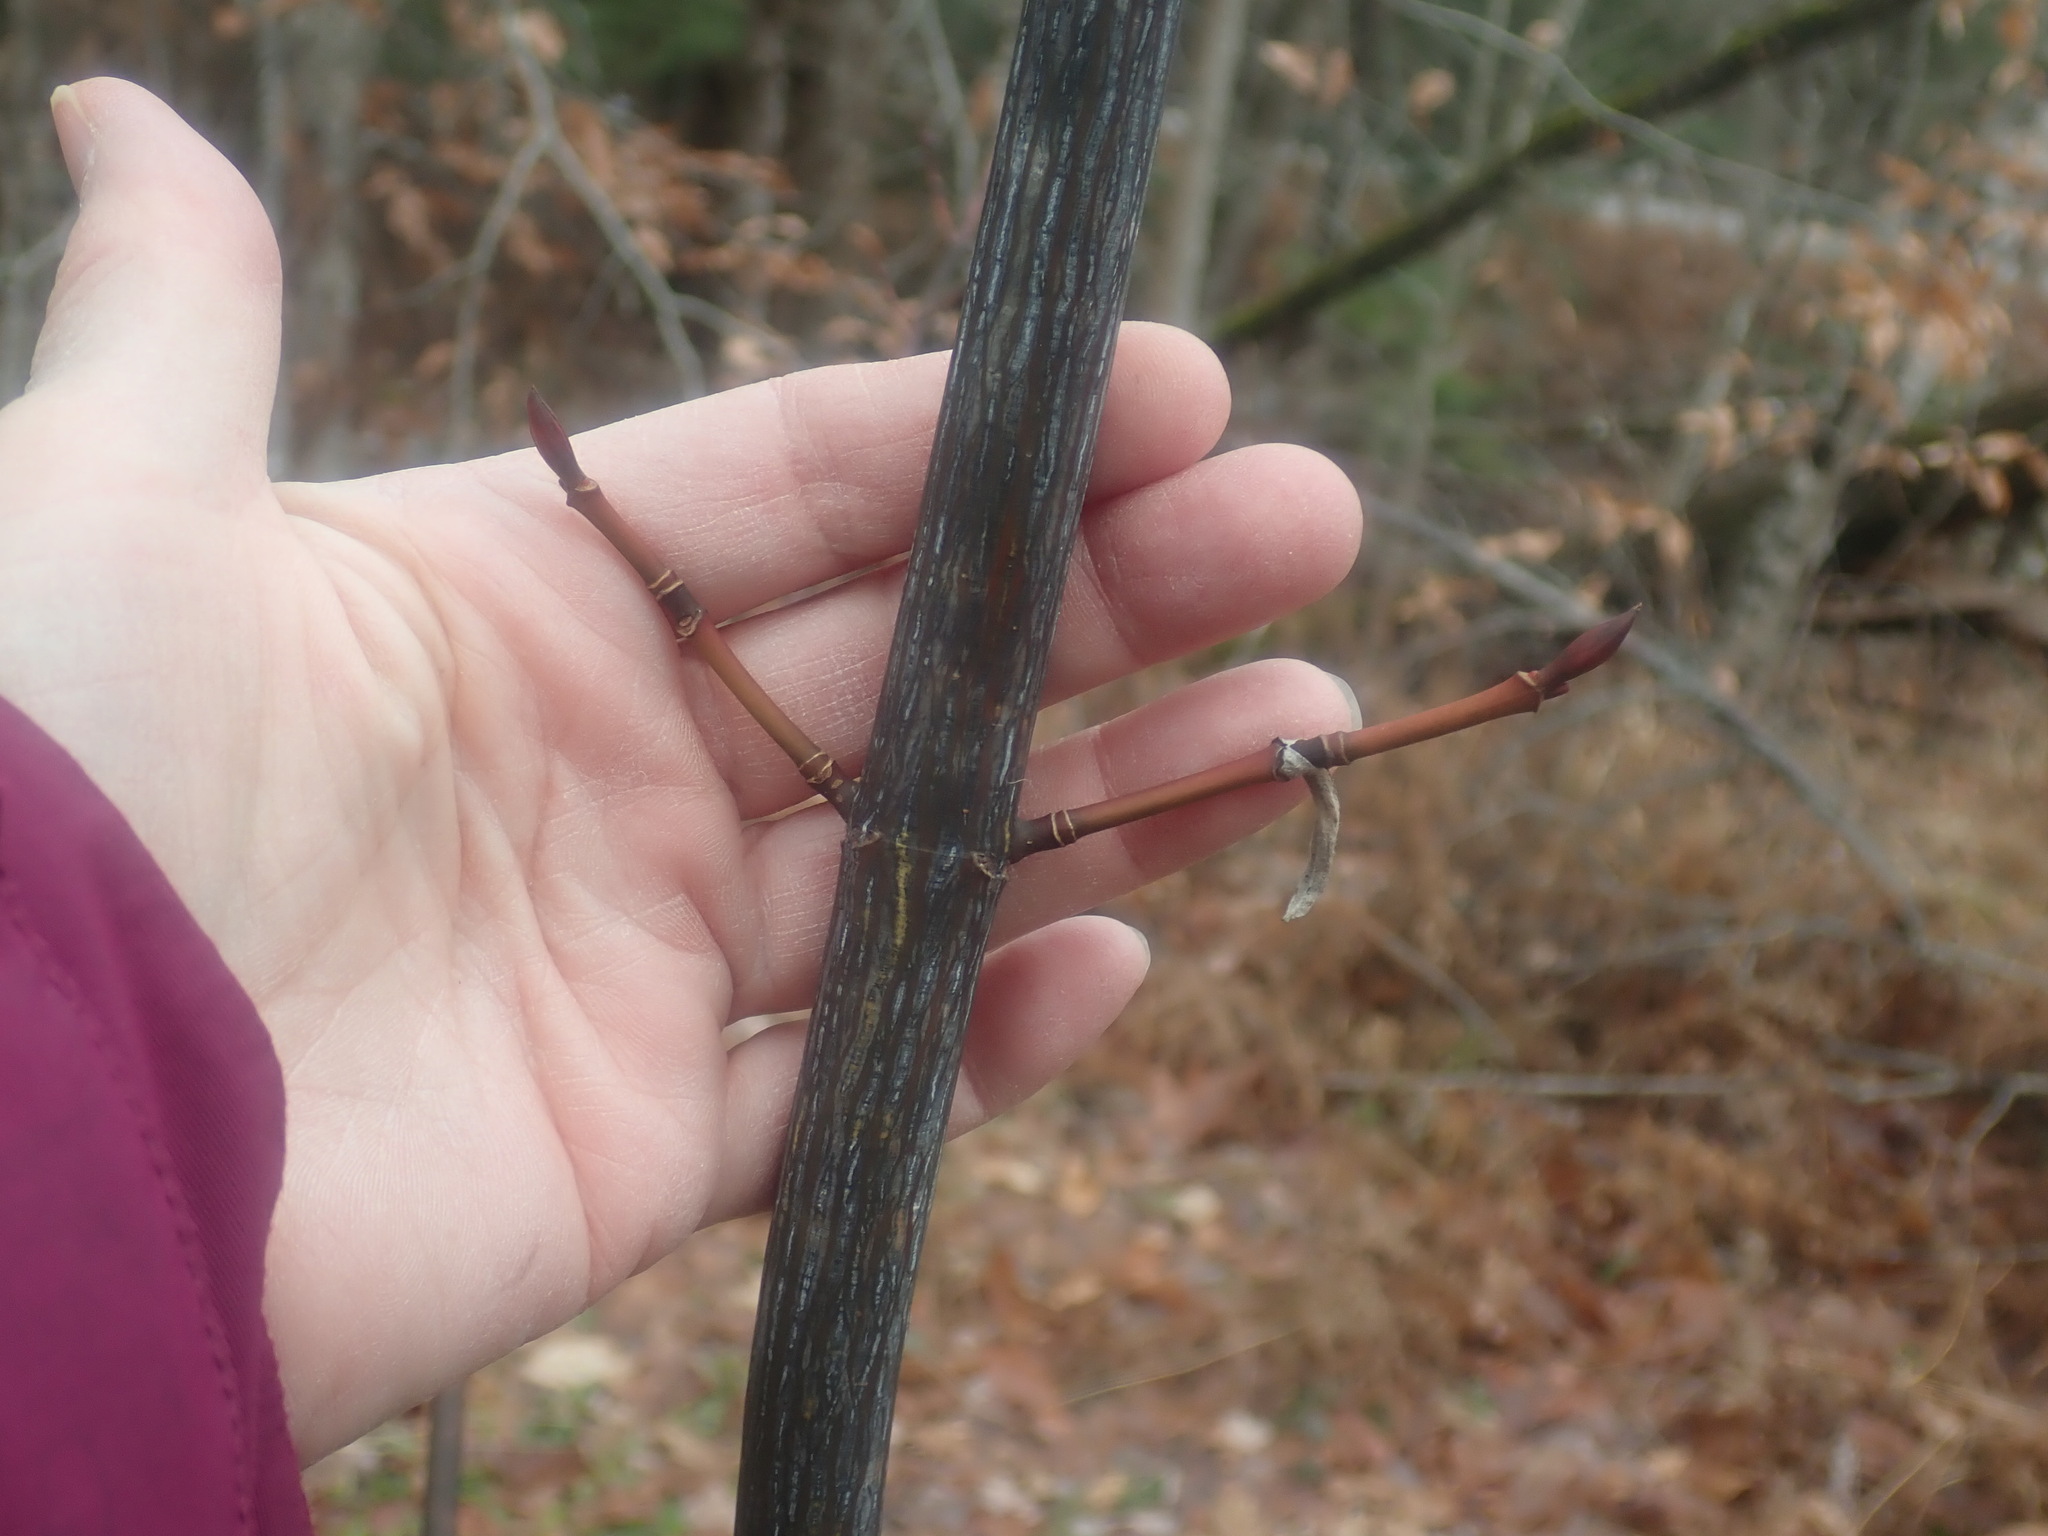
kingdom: Plantae
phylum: Tracheophyta
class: Magnoliopsida
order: Sapindales
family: Sapindaceae
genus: Acer
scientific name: Acer pensylvanicum
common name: Moosewood
